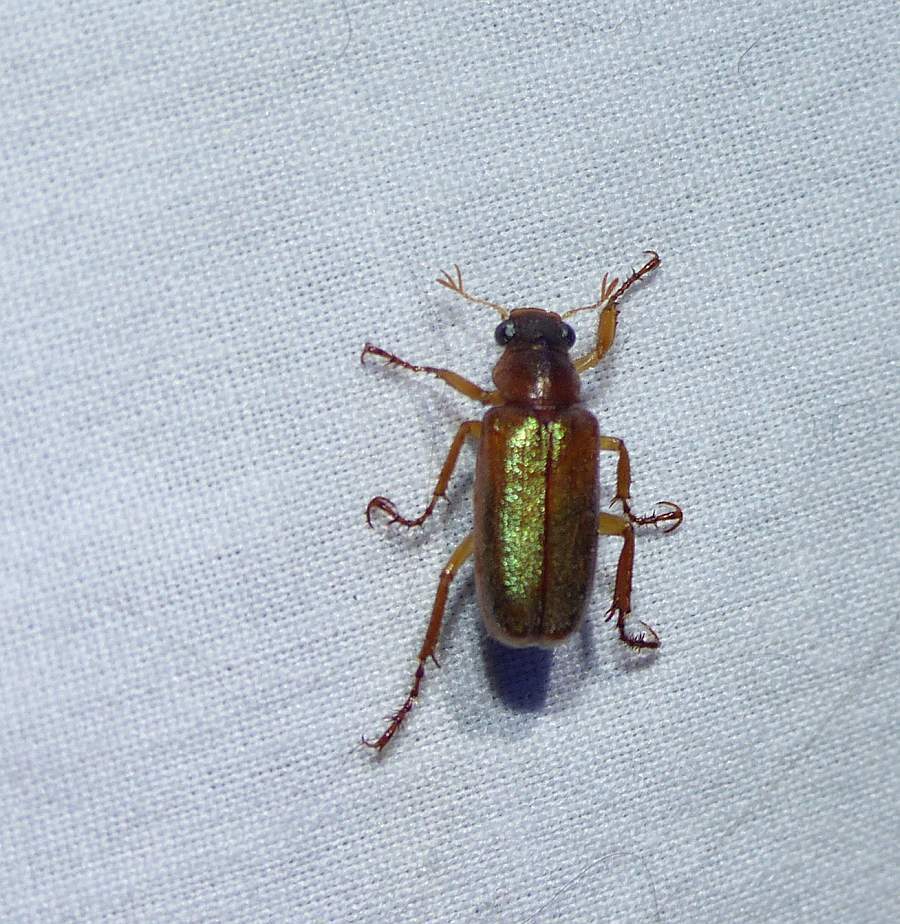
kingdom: Animalia
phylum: Arthropoda
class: Insecta
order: Coleoptera
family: Scarabaeidae
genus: Dichelonyx
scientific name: Dichelonyx linearis
